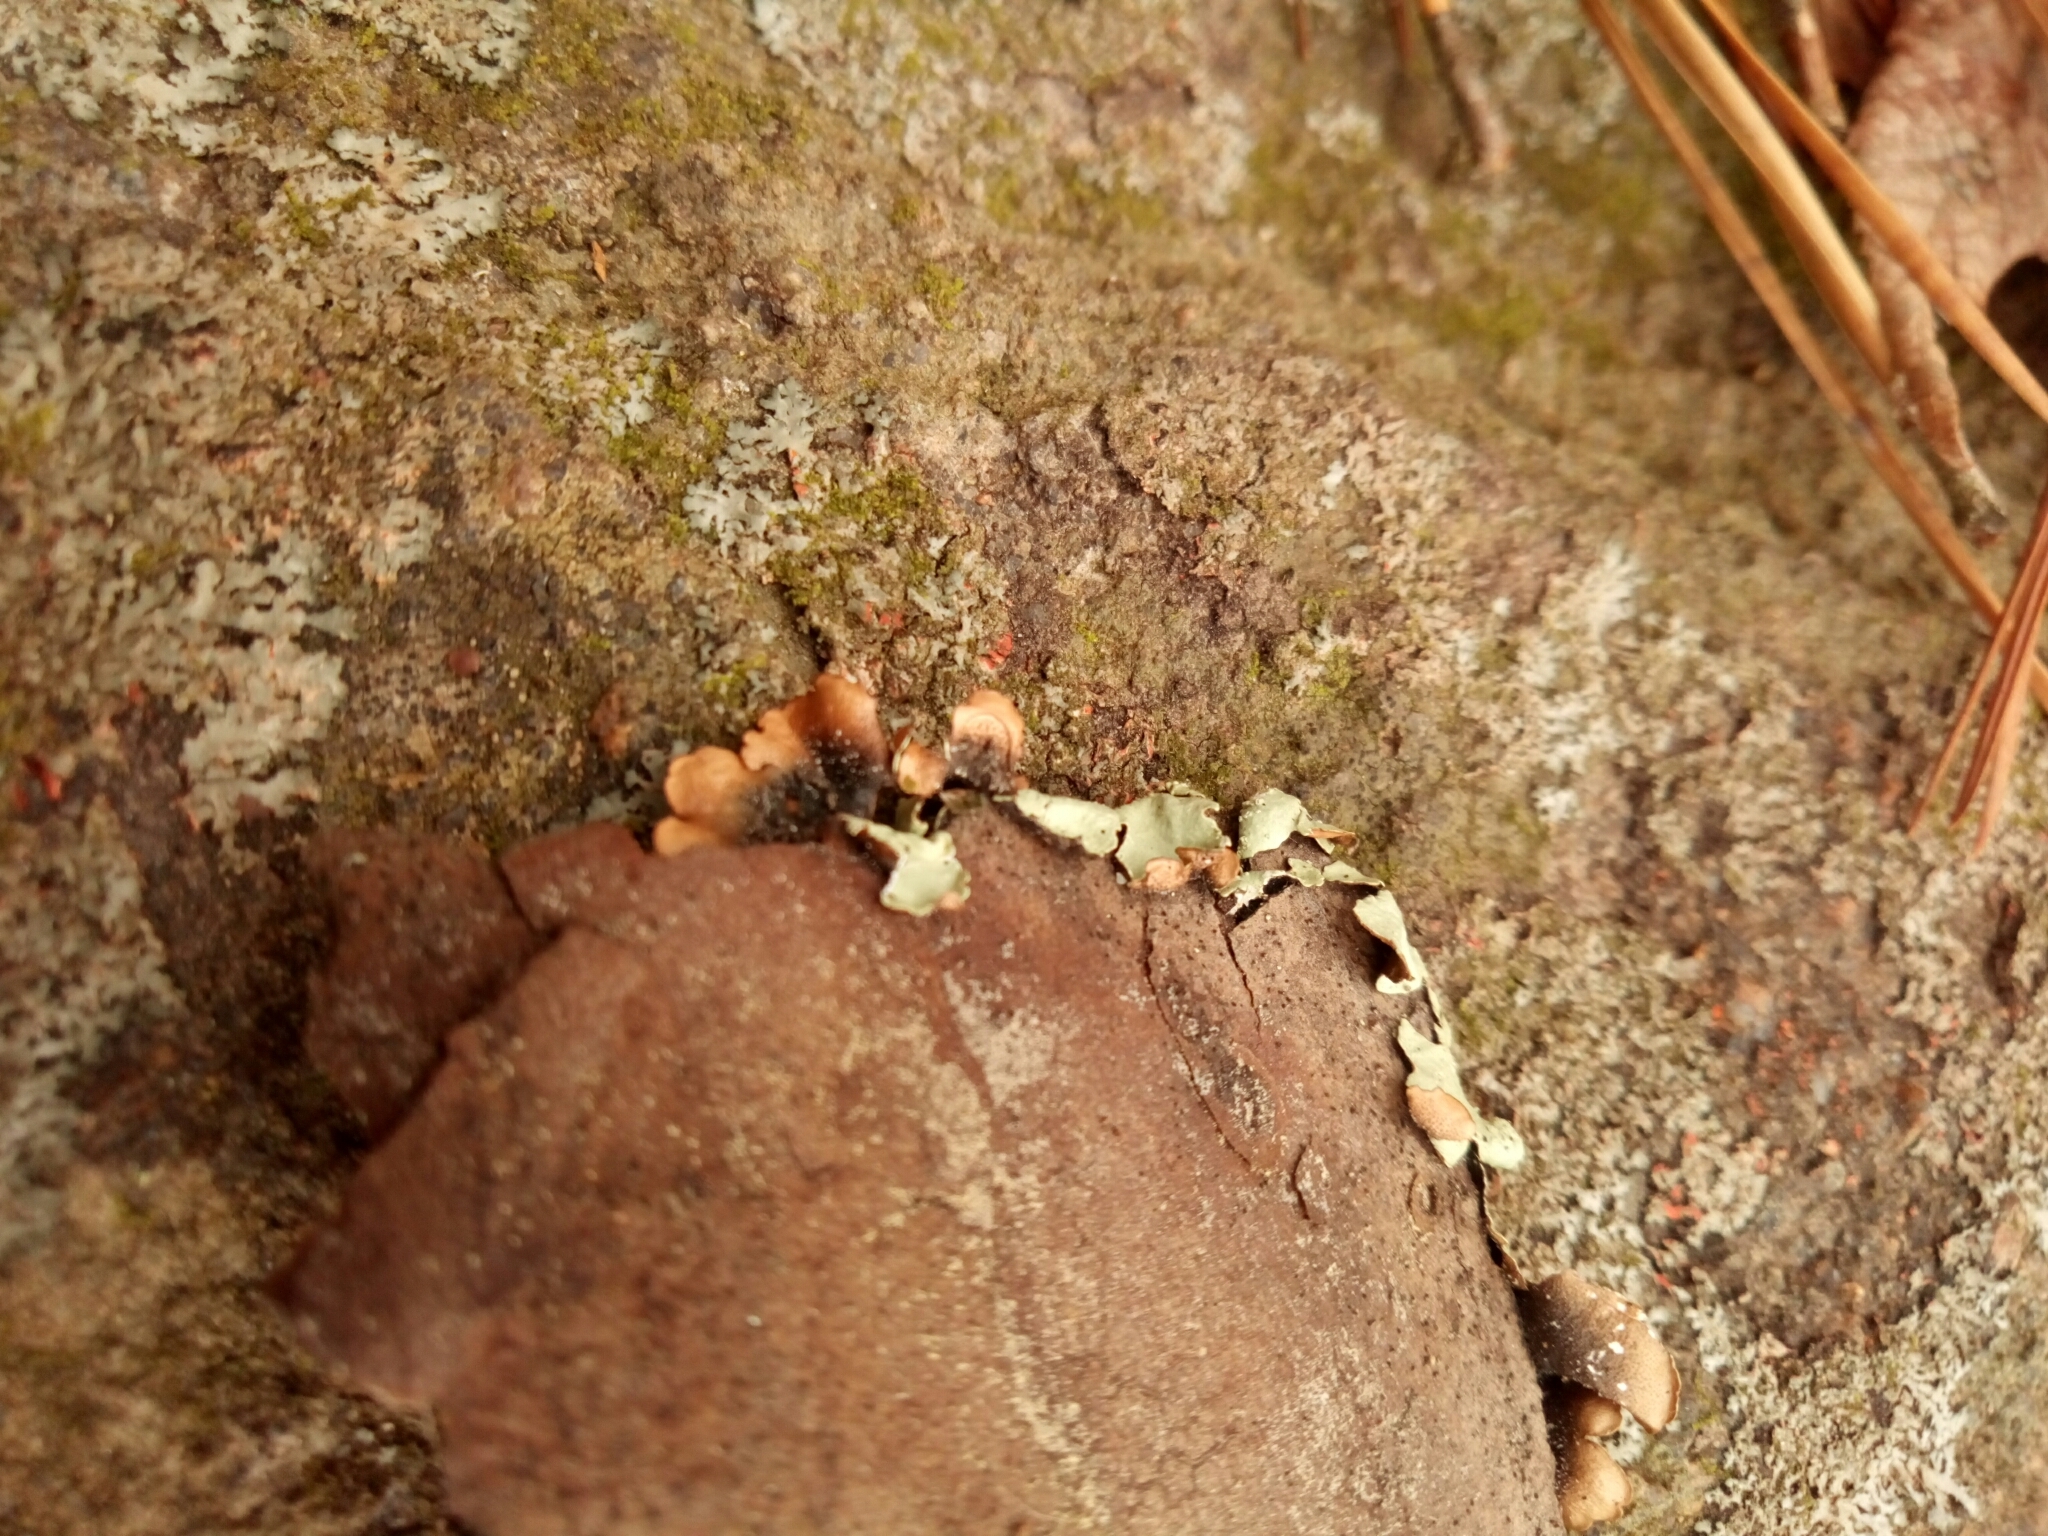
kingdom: Fungi
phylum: Ascomycota
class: Lecanoromycetes
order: Lecanorales
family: Parmeliaceae
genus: Flavoparmelia
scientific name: Flavoparmelia caperata
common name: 40-mile per hour lichen
